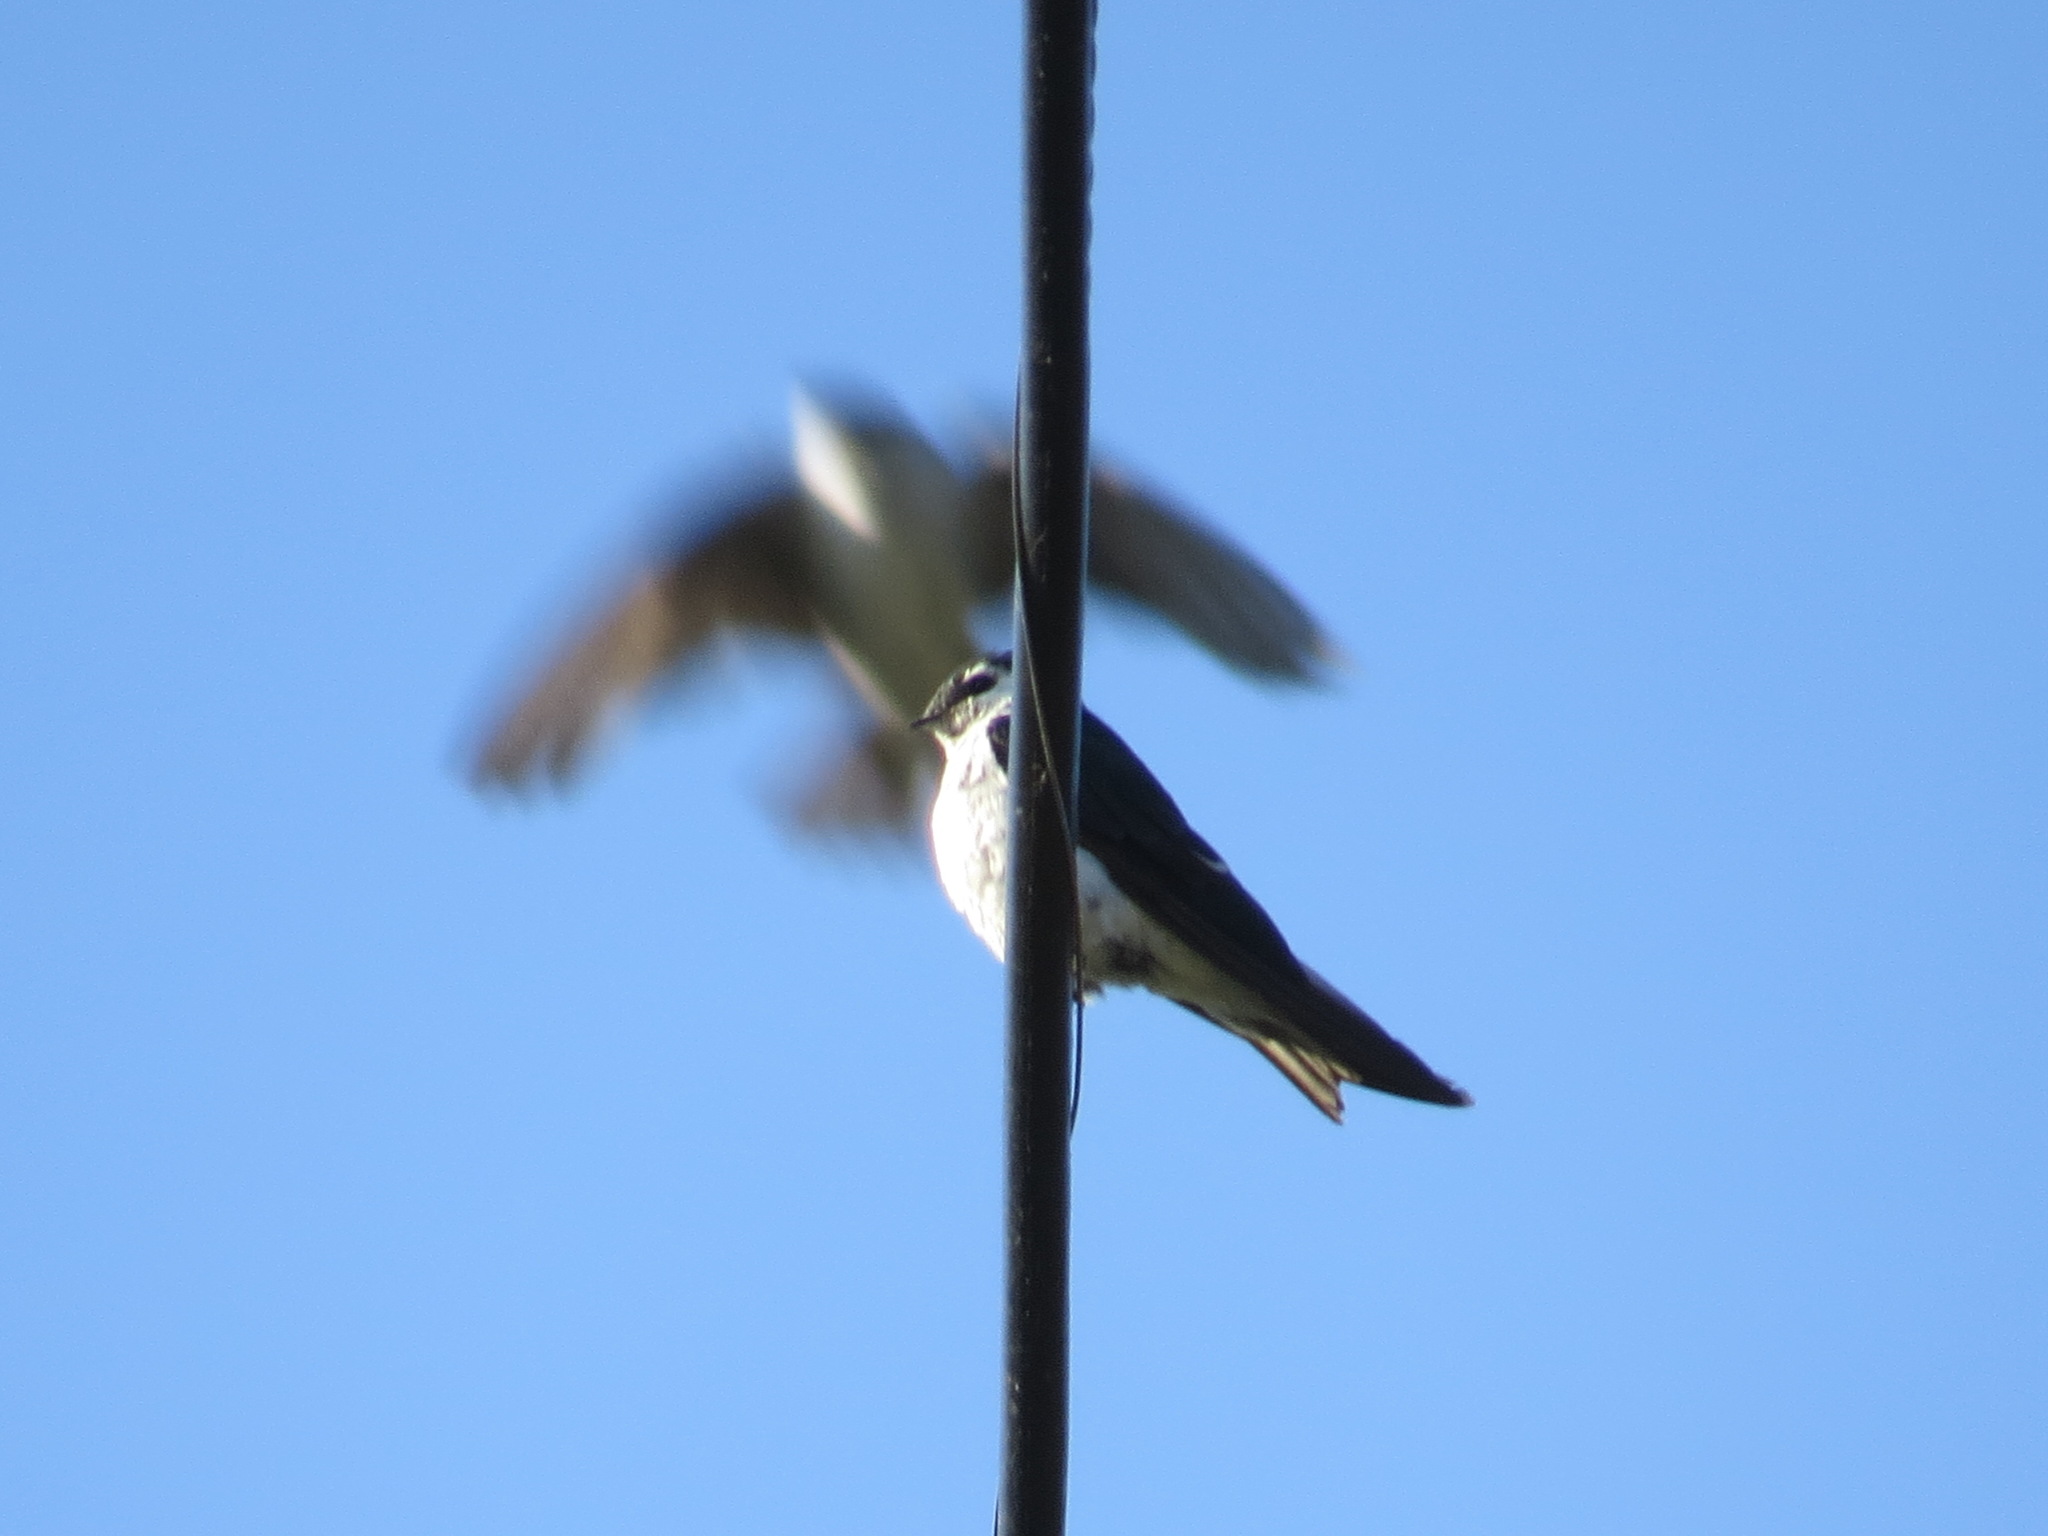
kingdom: Animalia
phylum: Chordata
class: Aves
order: Passeriformes
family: Hirundinidae
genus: Tachycineta
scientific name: Tachycineta thalassina
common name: Violet-green swallow
